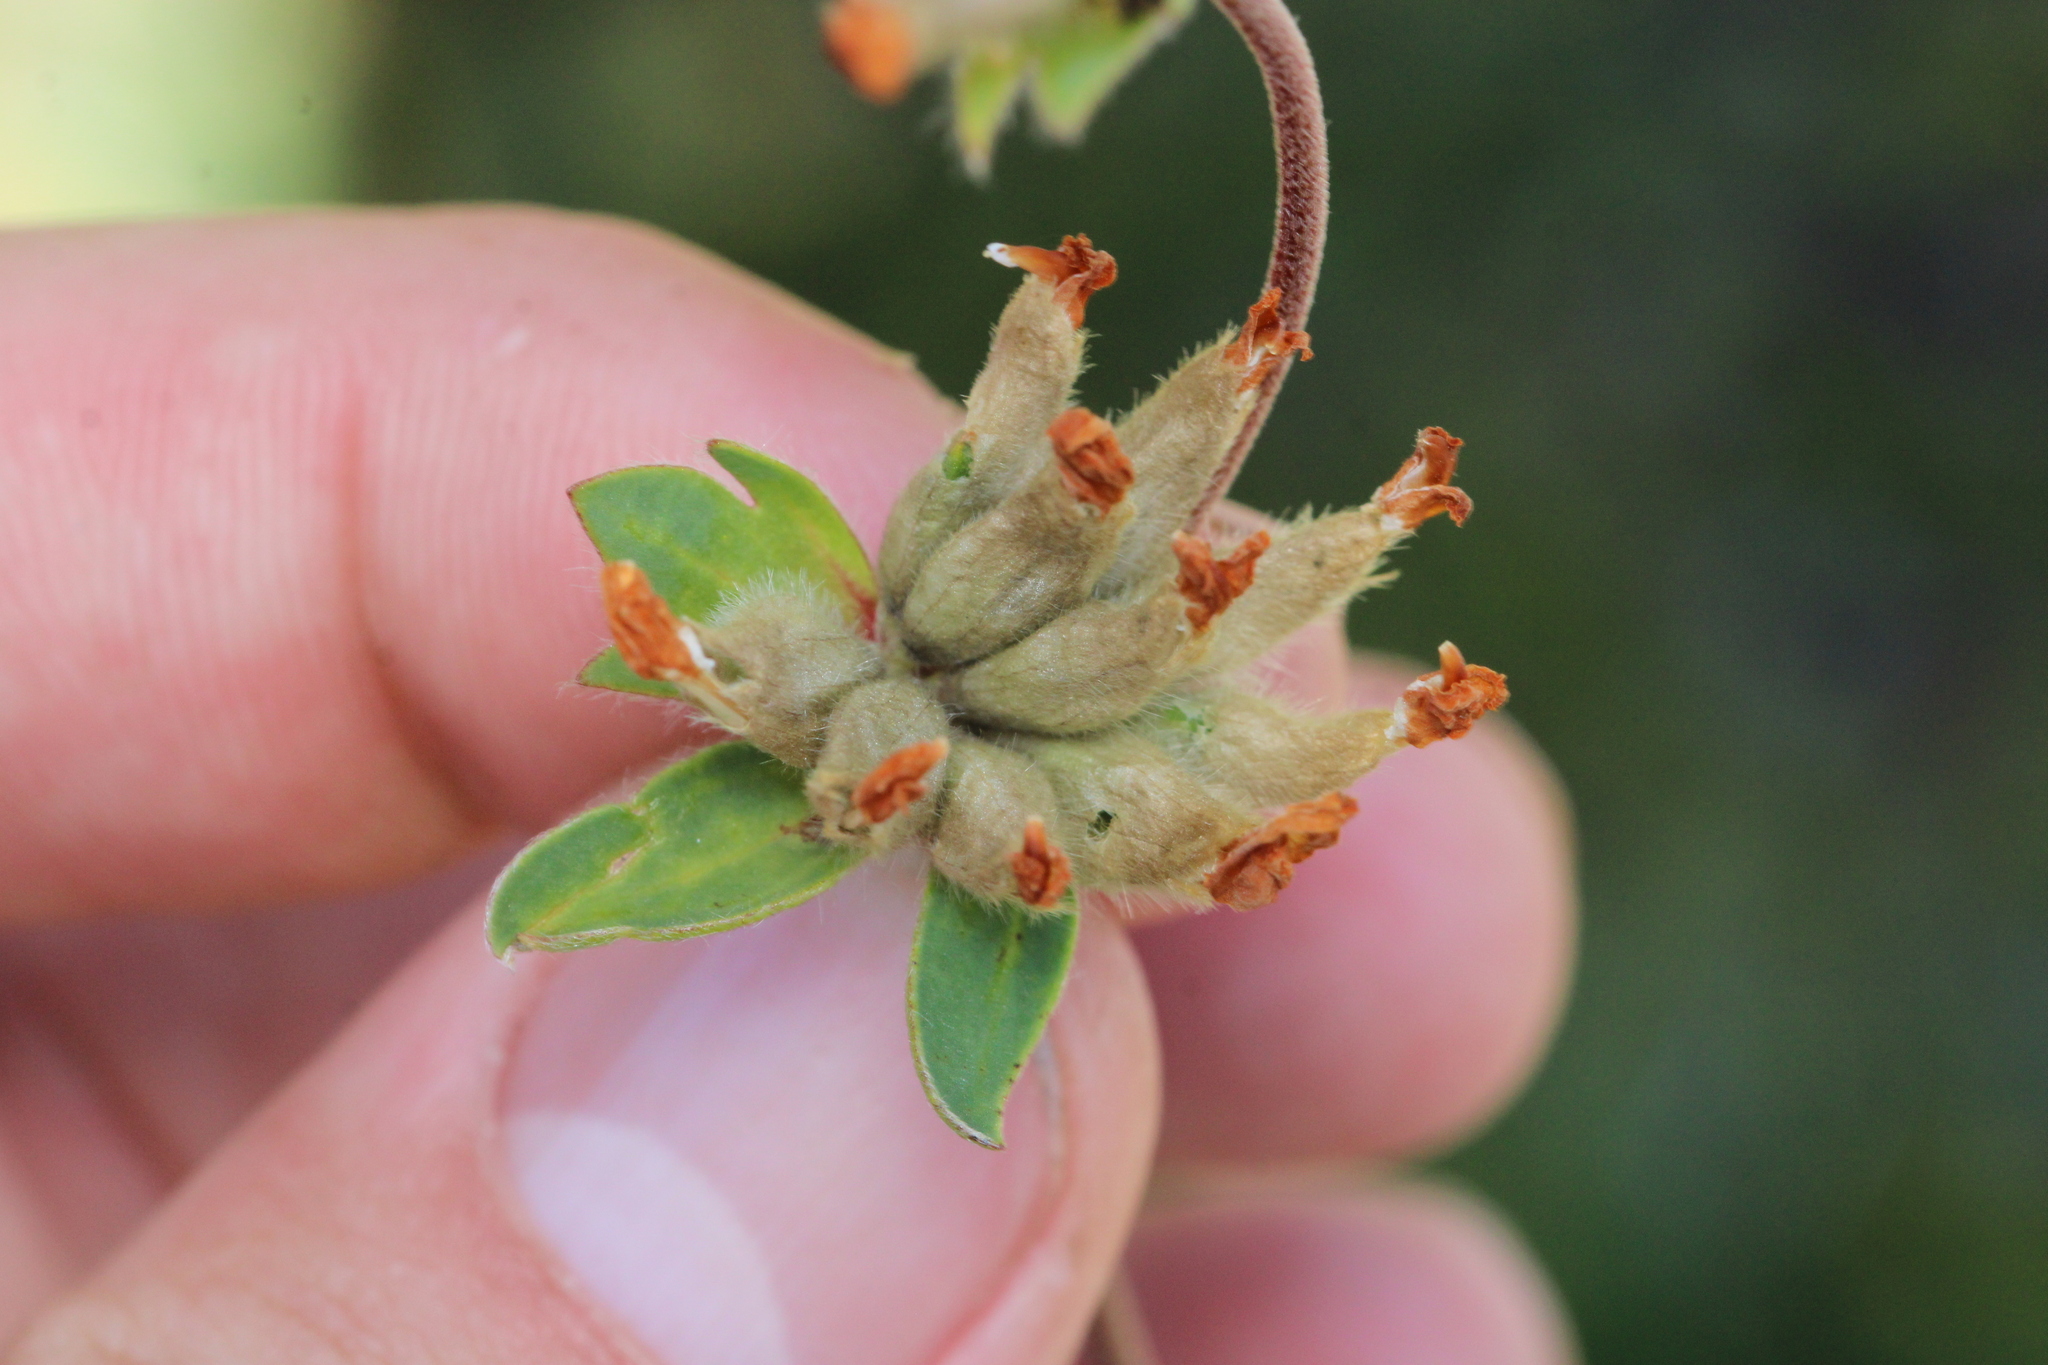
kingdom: Plantae
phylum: Tracheophyta
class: Magnoliopsida
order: Fabales
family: Fabaceae
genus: Anthyllis
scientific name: Anthyllis vulneraria
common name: Kidney vetch
